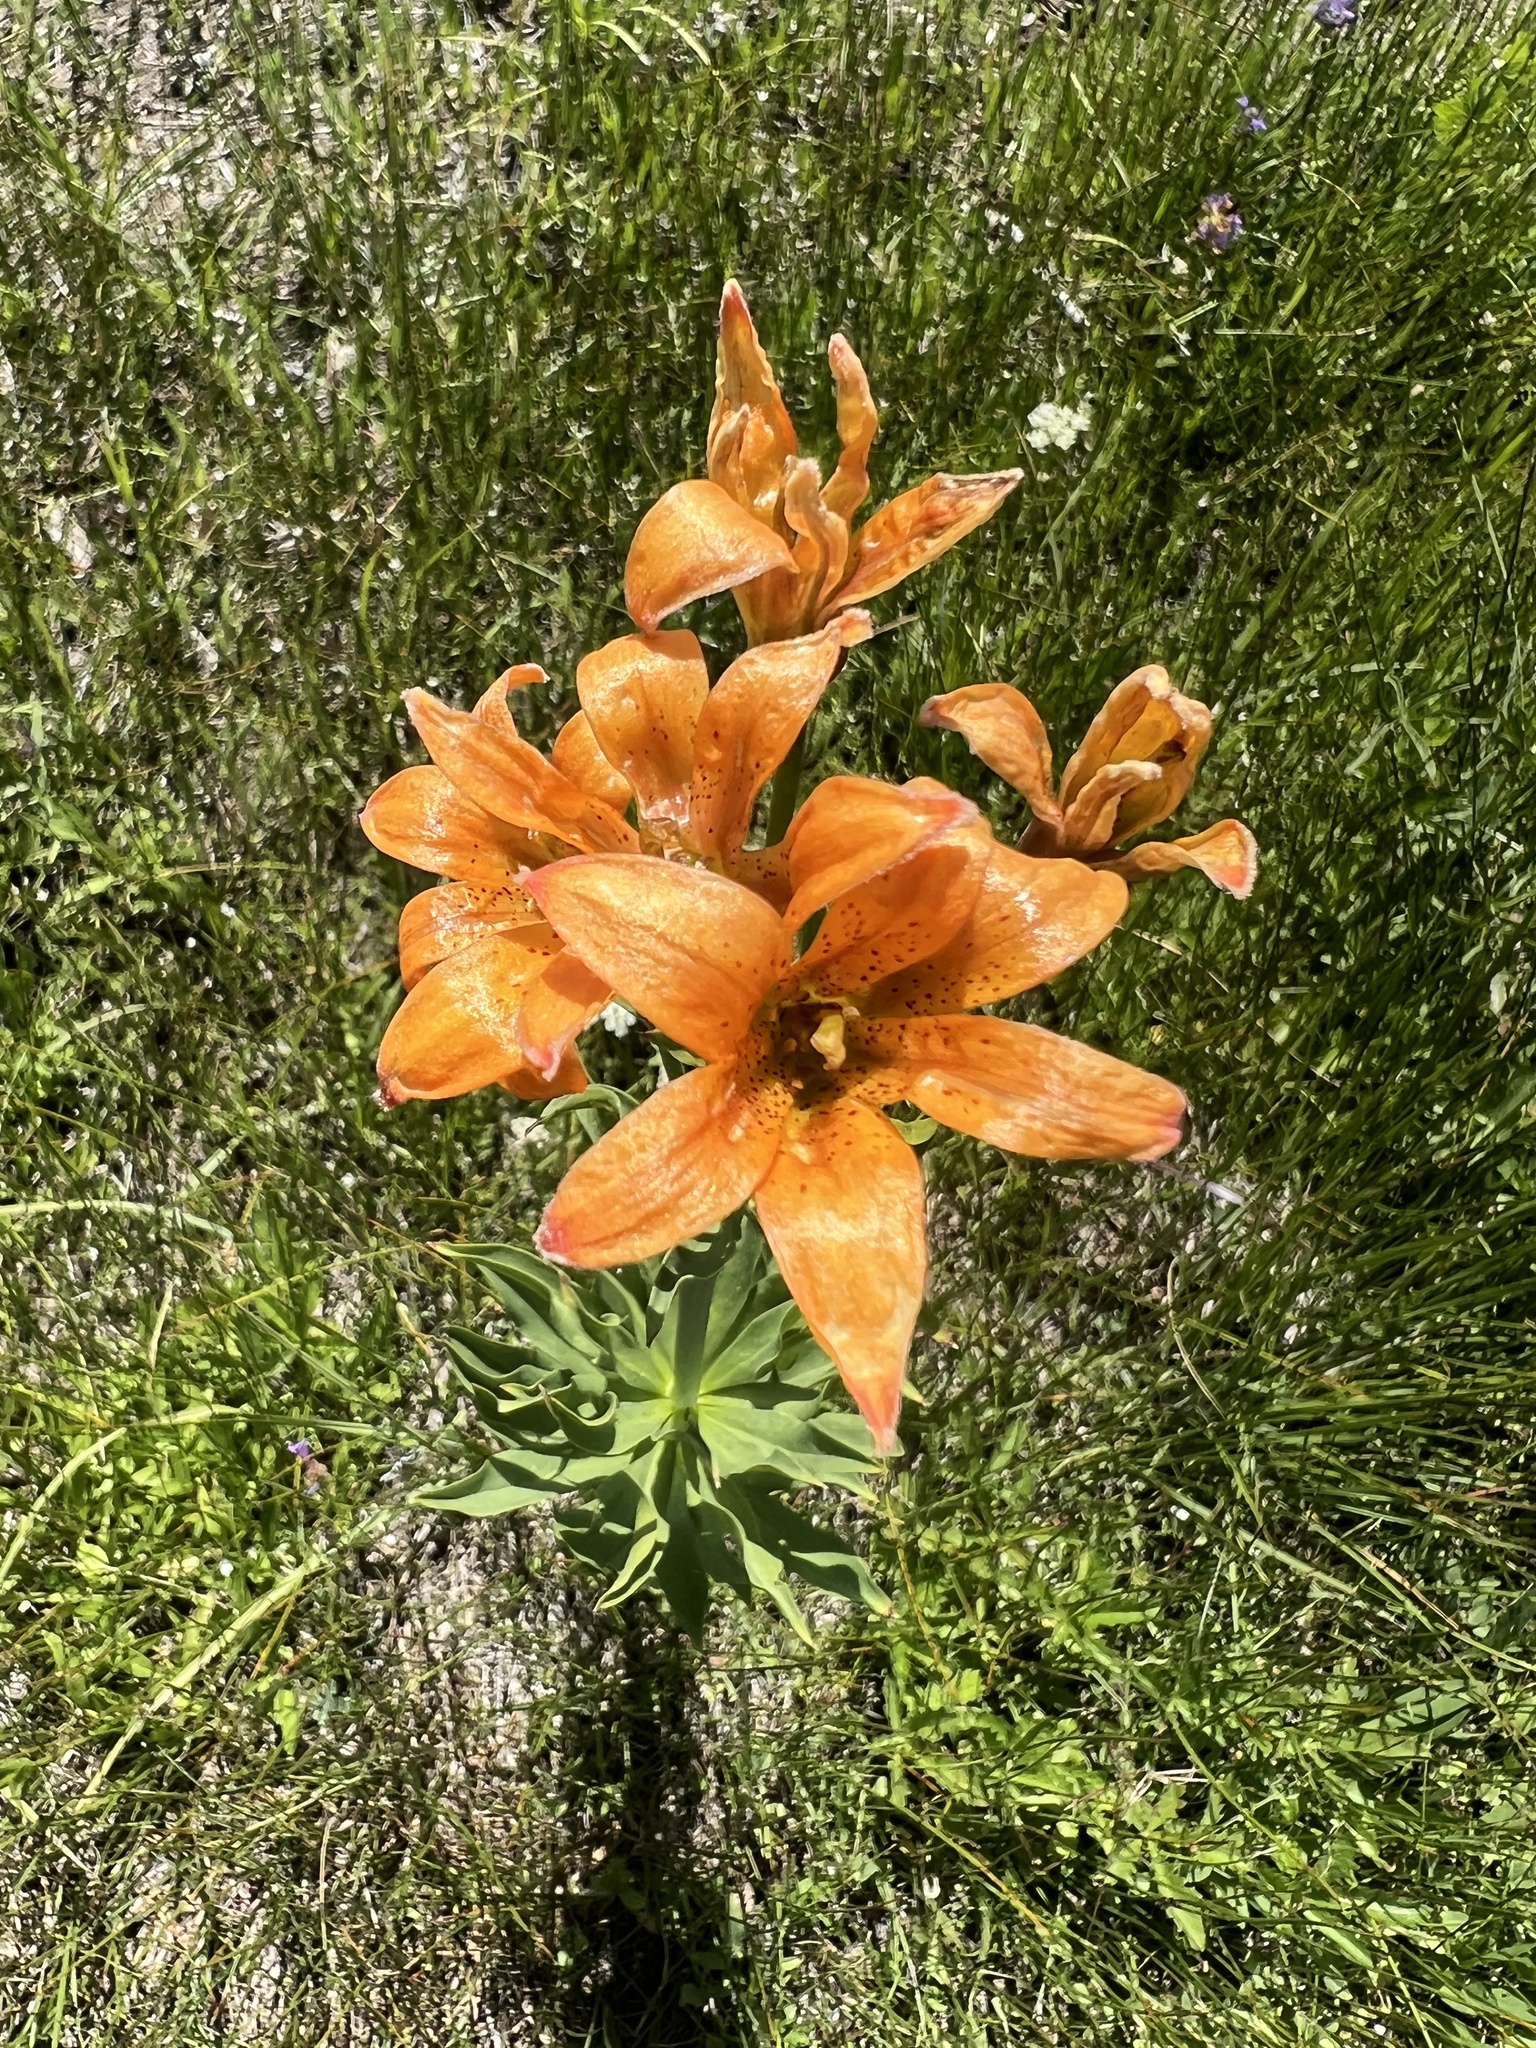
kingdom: Plantae
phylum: Tracheophyta
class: Liliopsida
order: Liliales
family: Liliaceae
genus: Lilium
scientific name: Lilium parvum
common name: Alpine lily
